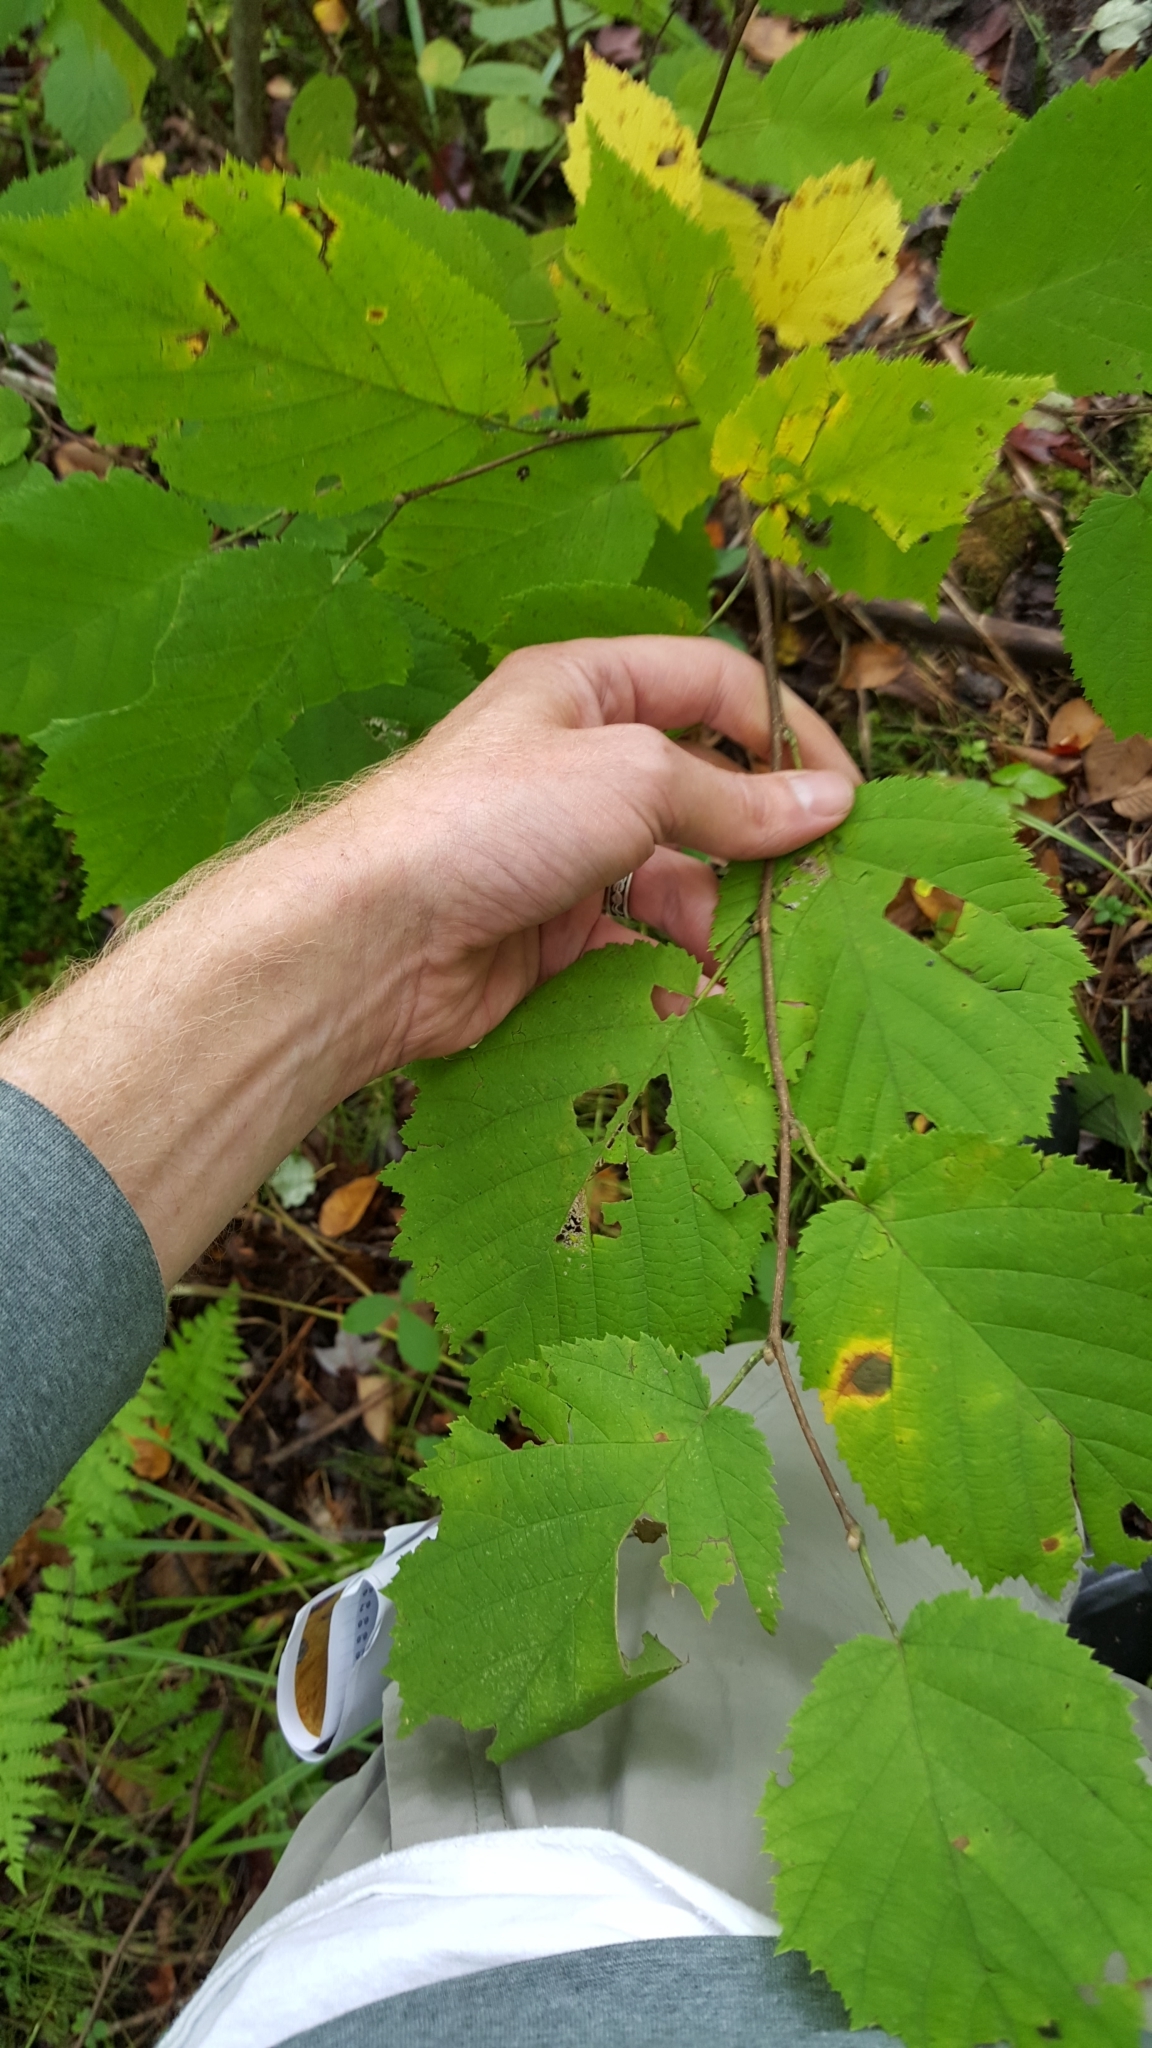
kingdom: Plantae
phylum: Tracheophyta
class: Magnoliopsida
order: Fagales
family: Betulaceae
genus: Corylus
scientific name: Corylus cornuta
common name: Beaked hazel
